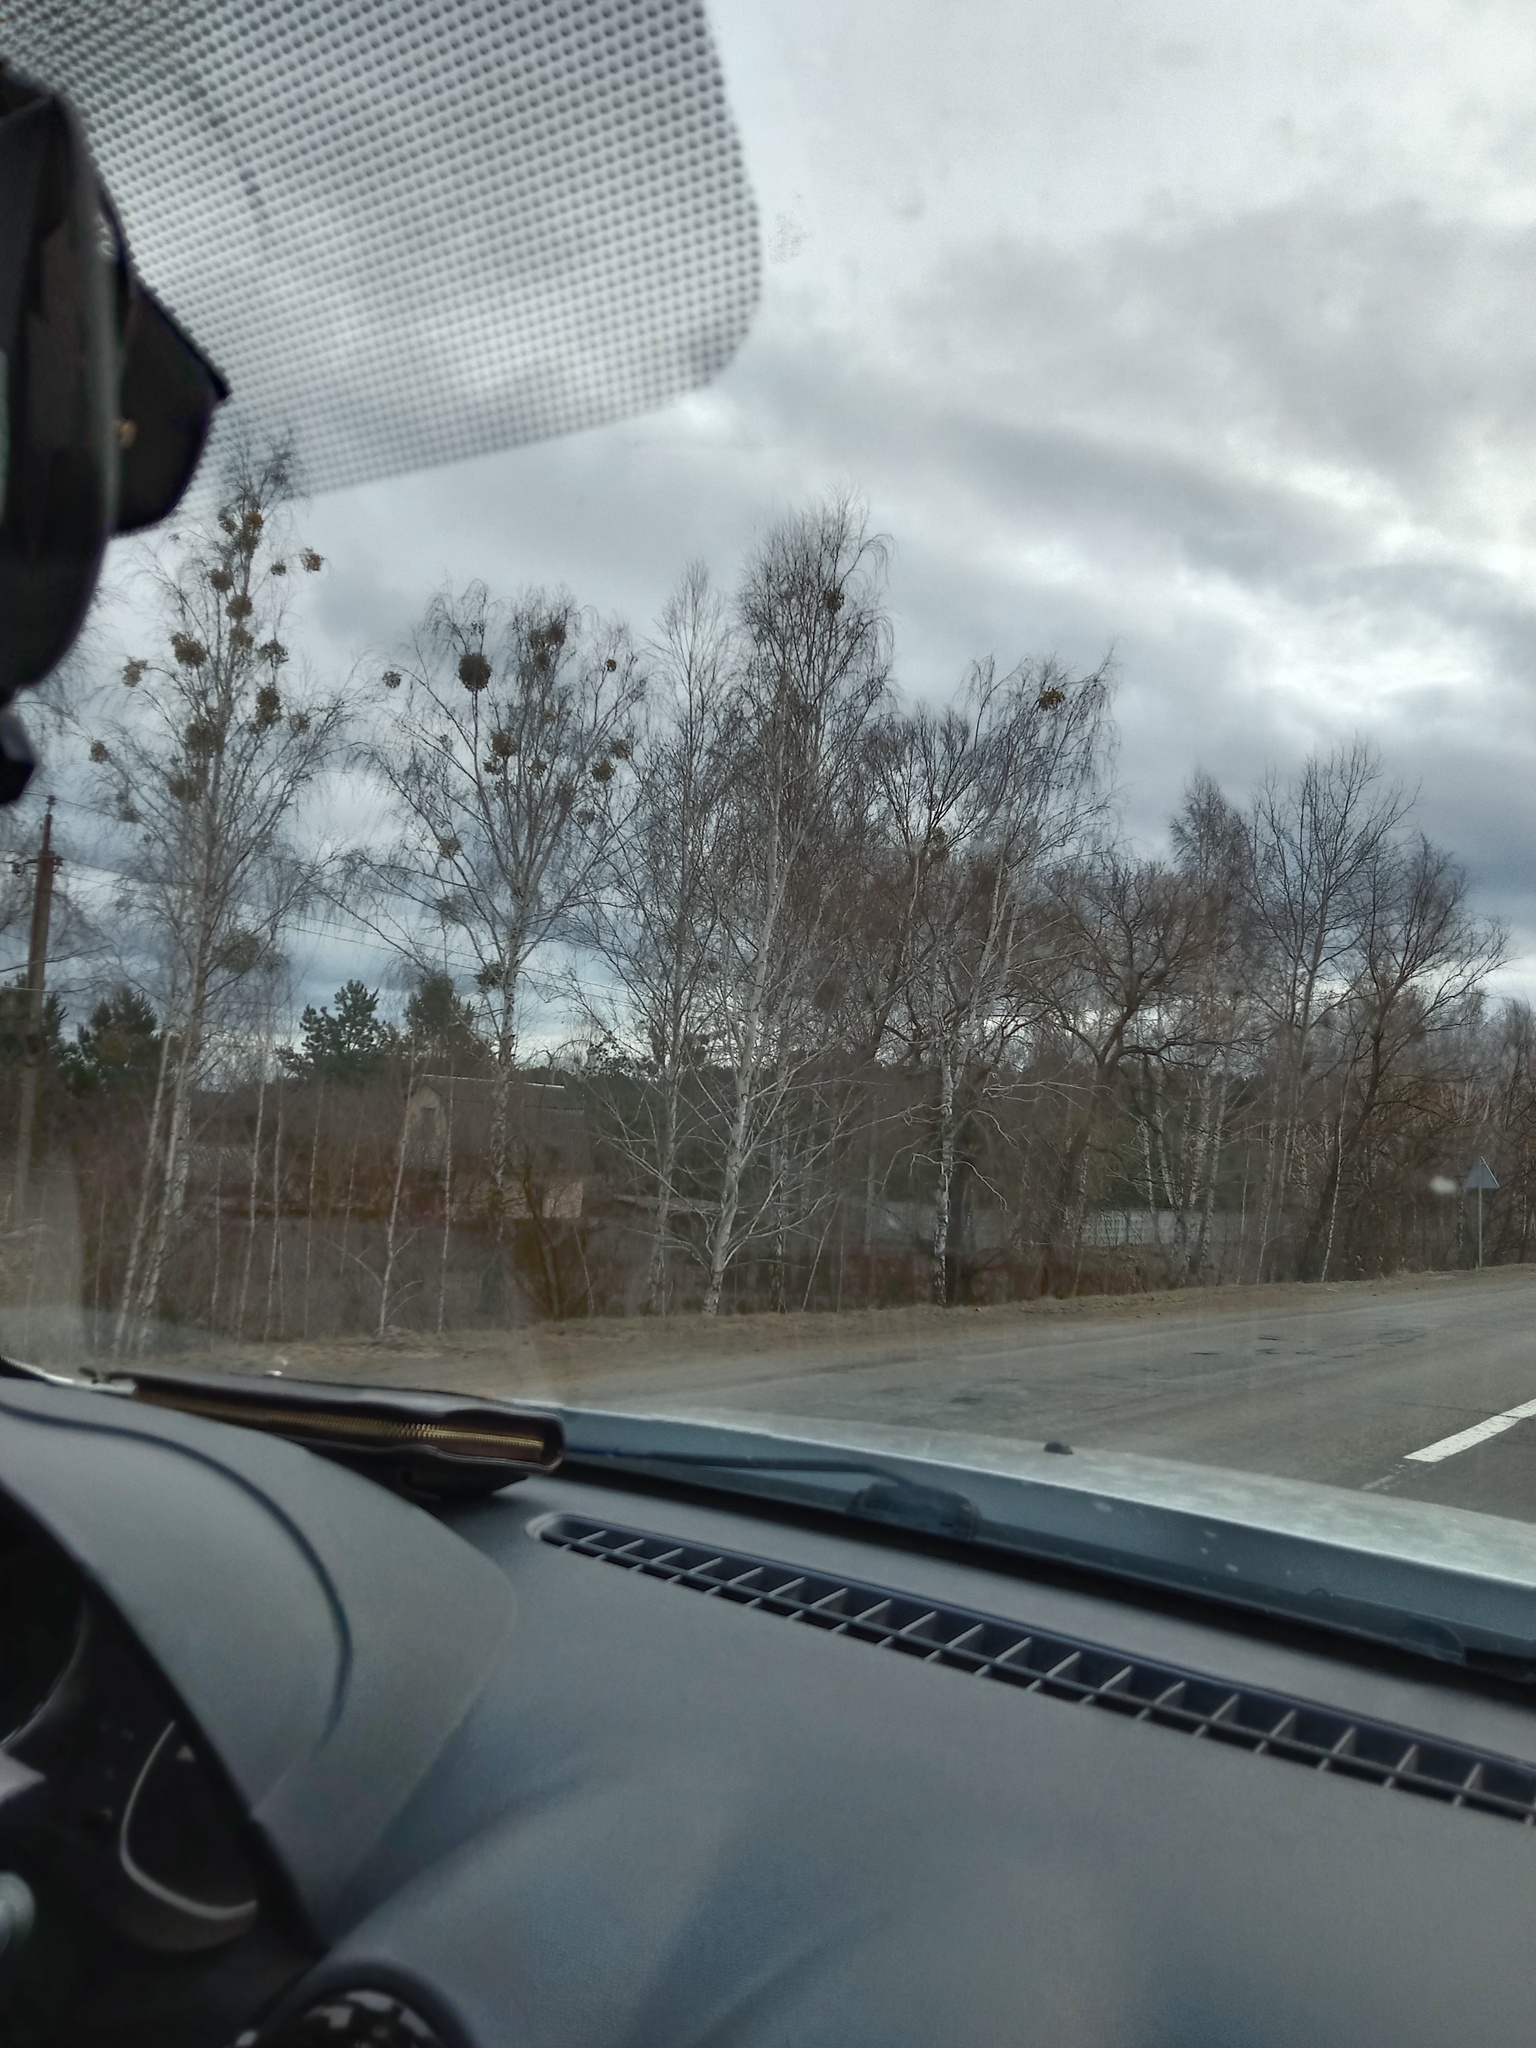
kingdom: Plantae
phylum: Tracheophyta
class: Magnoliopsida
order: Santalales
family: Viscaceae
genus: Viscum
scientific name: Viscum album
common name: Mistletoe
